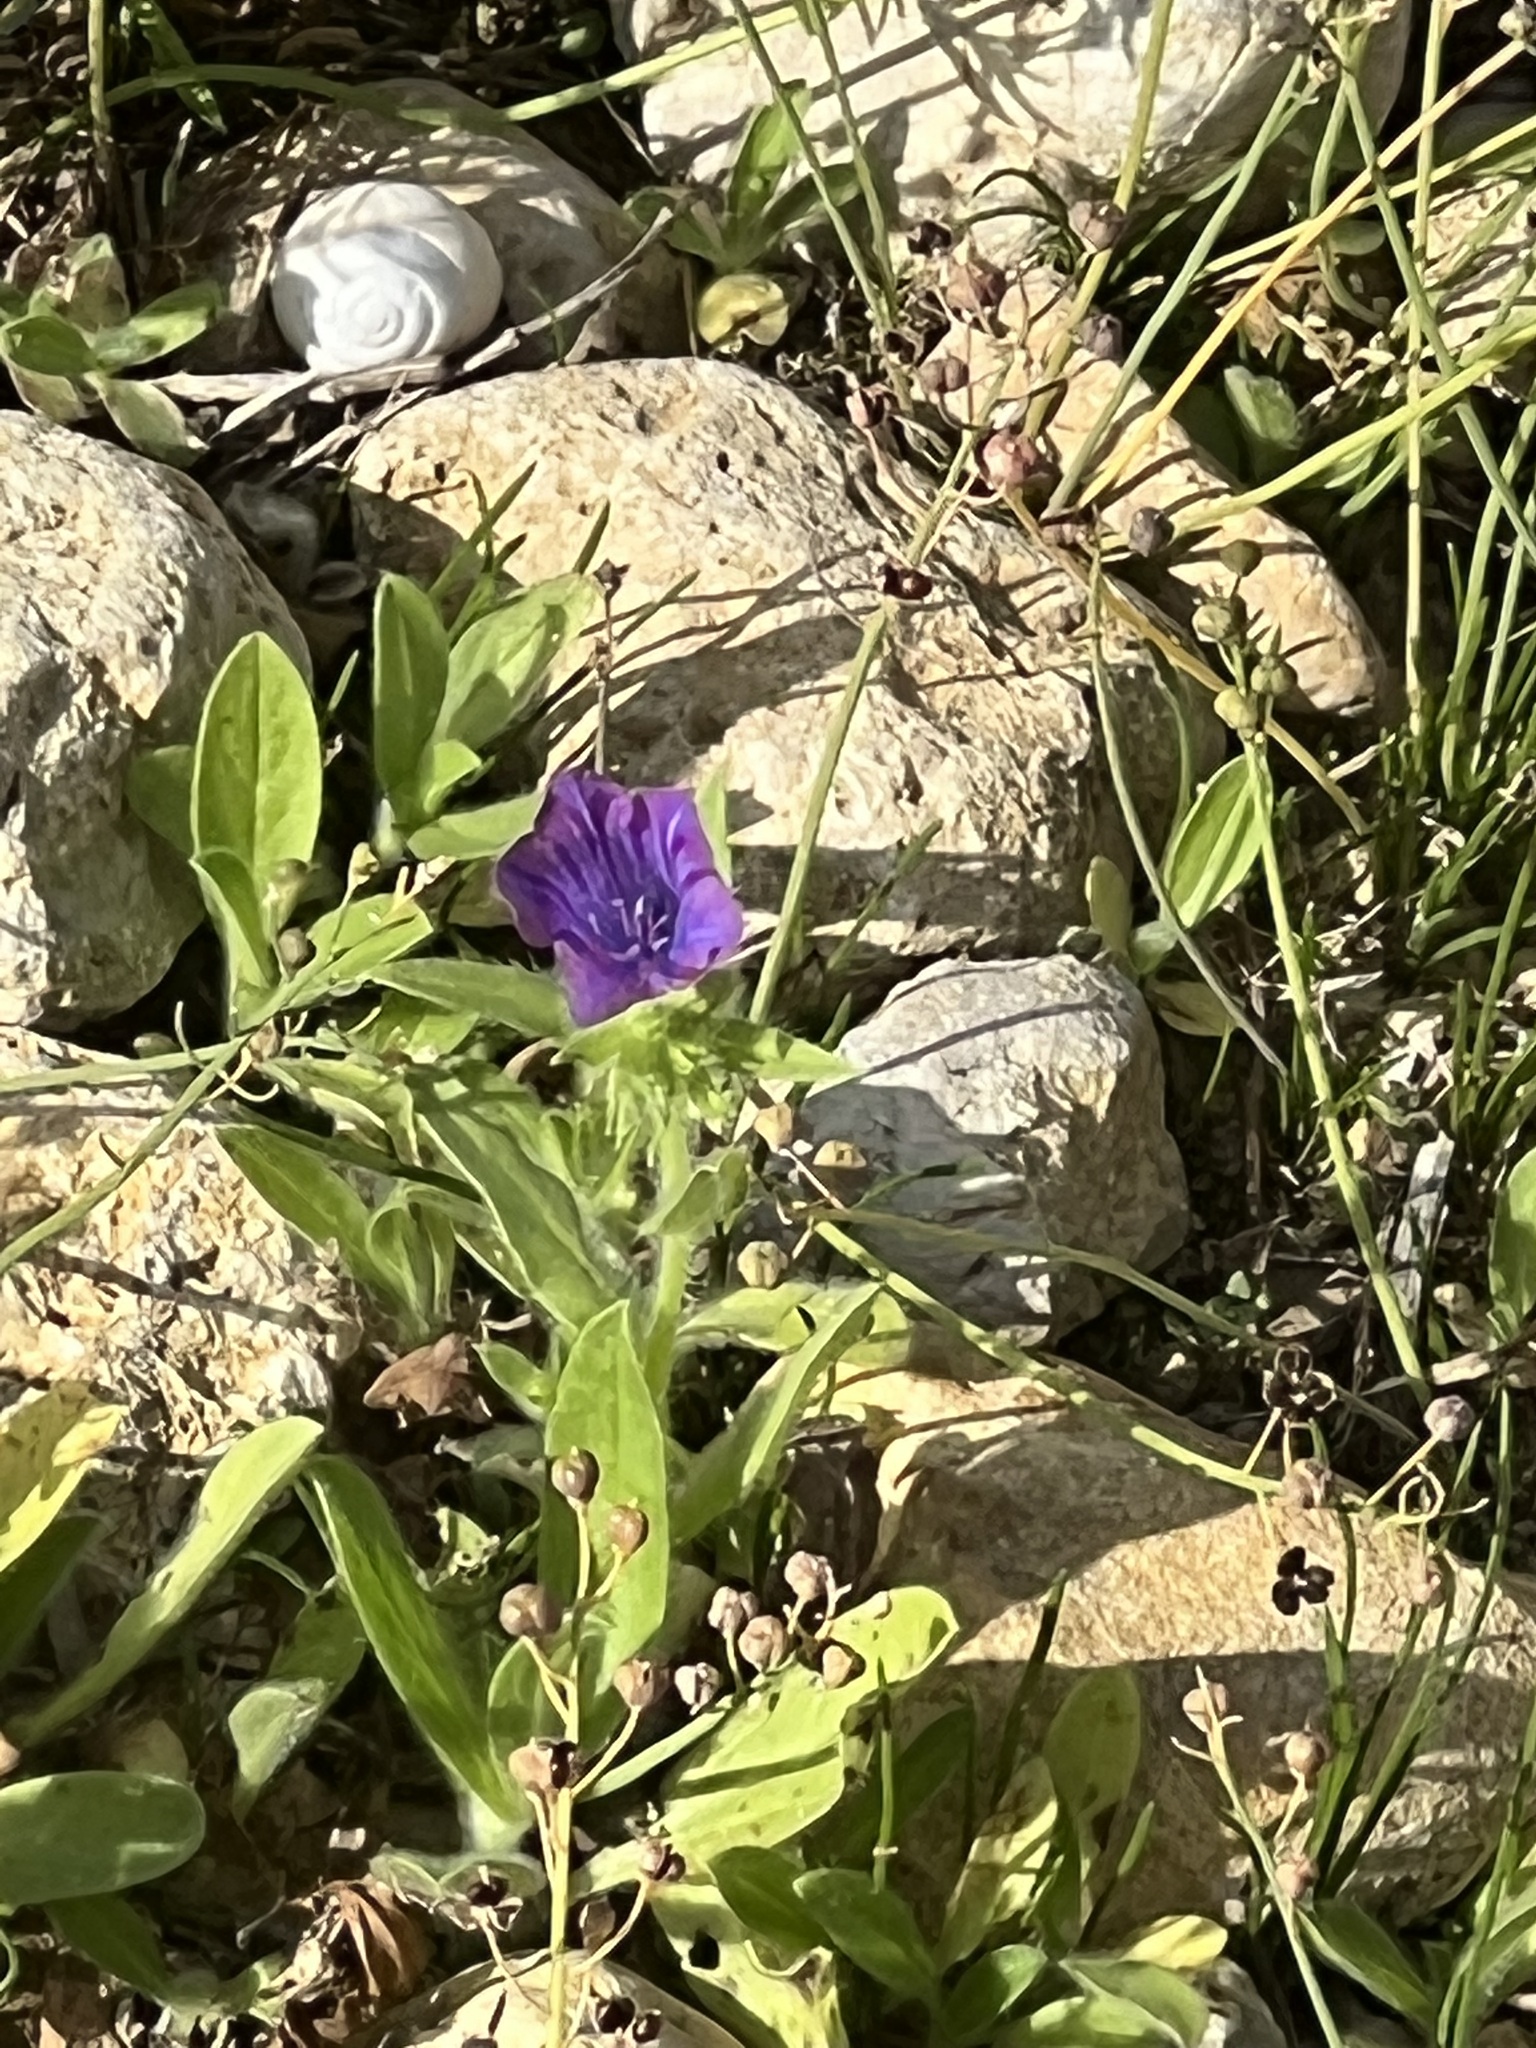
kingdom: Plantae
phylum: Tracheophyta
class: Magnoliopsida
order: Boraginales
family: Boraginaceae
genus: Echium
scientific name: Echium plantagineum
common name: Purple viper's-bugloss
